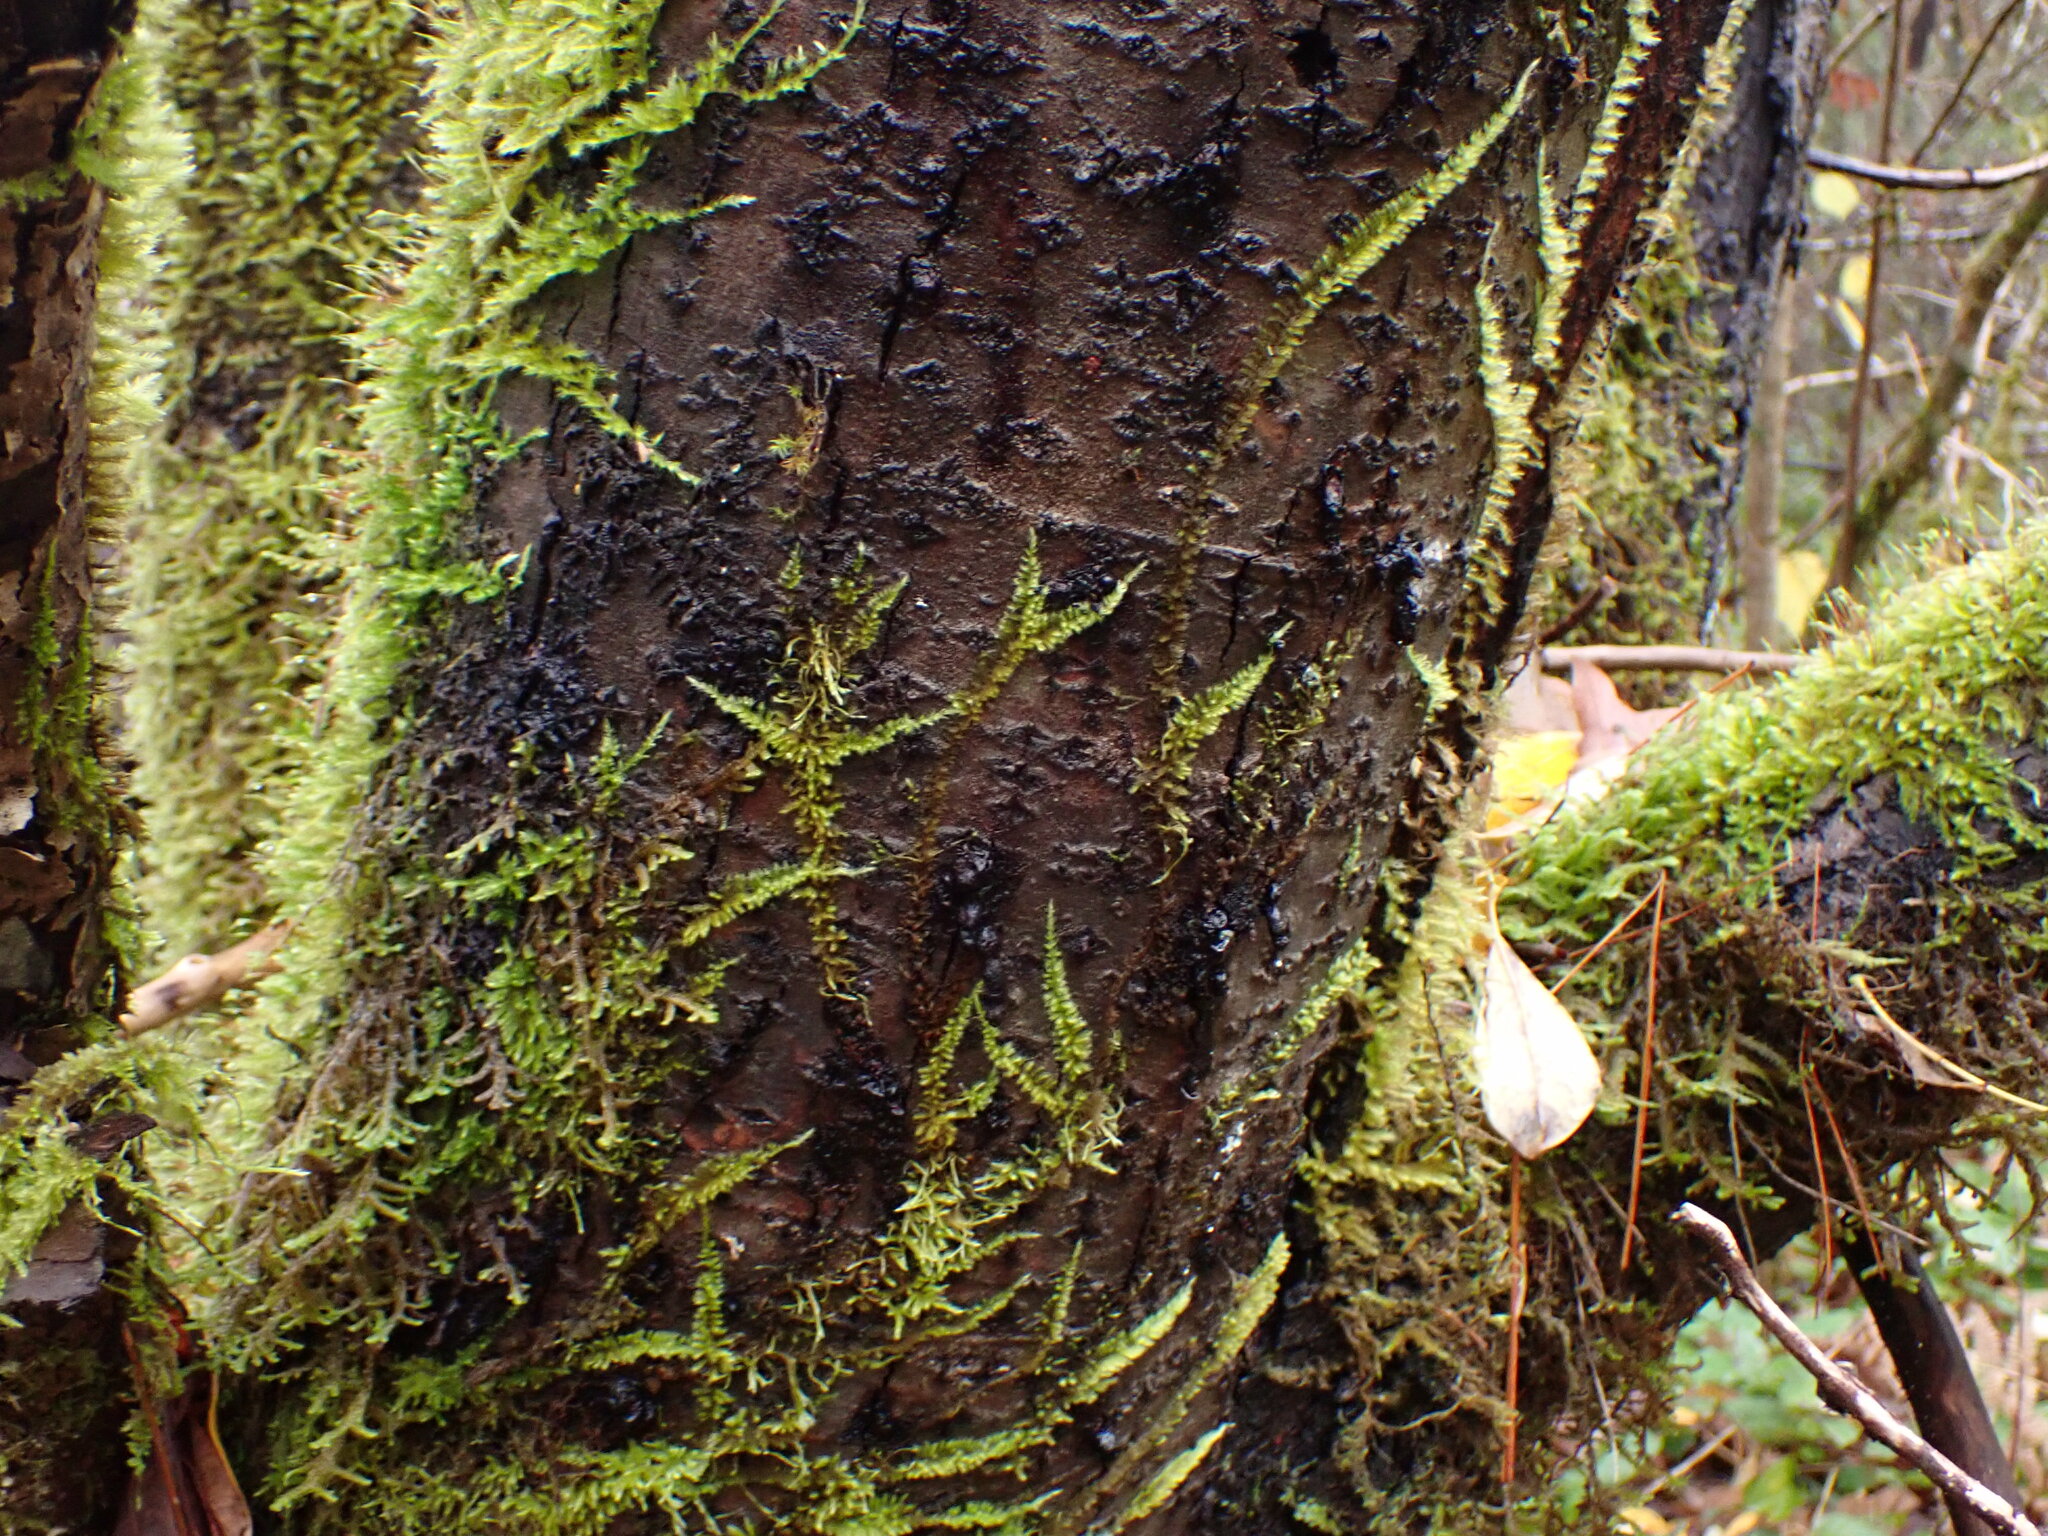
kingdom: Plantae
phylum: Bryophyta
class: Bryopsida
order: Hypnales
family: Brachytheciaceae
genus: Homalothecium
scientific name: Homalothecium nuttallii
